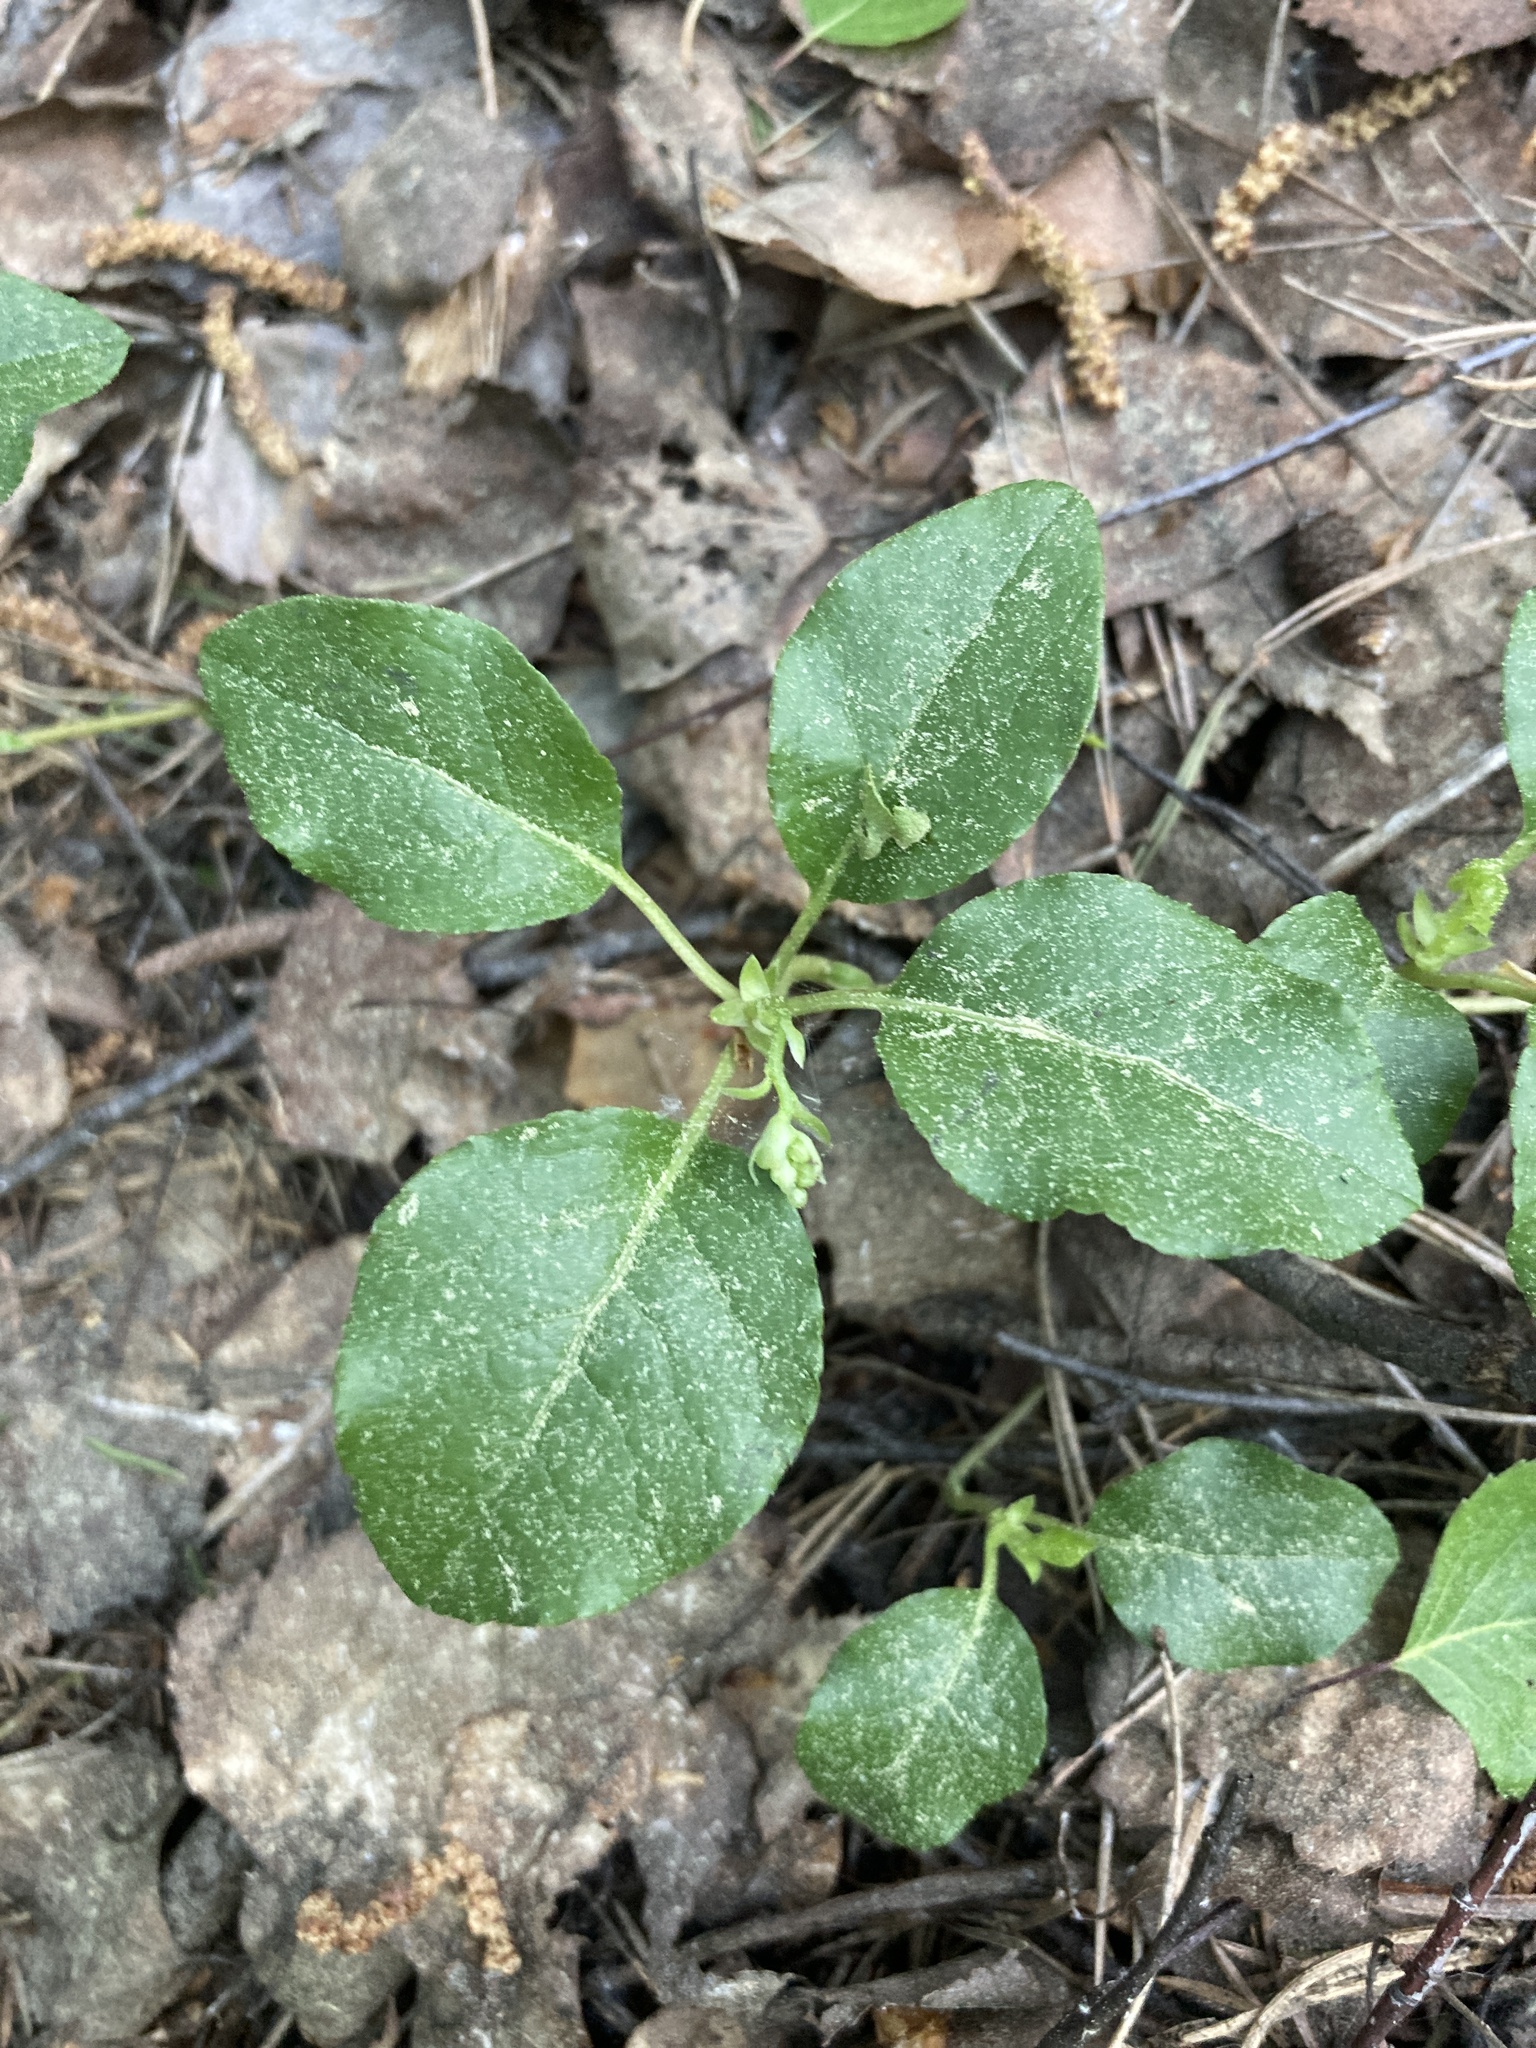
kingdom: Plantae
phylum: Tracheophyta
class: Magnoliopsida
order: Ericales
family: Ericaceae
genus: Orthilia
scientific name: Orthilia secunda
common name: One-sided orthilia
